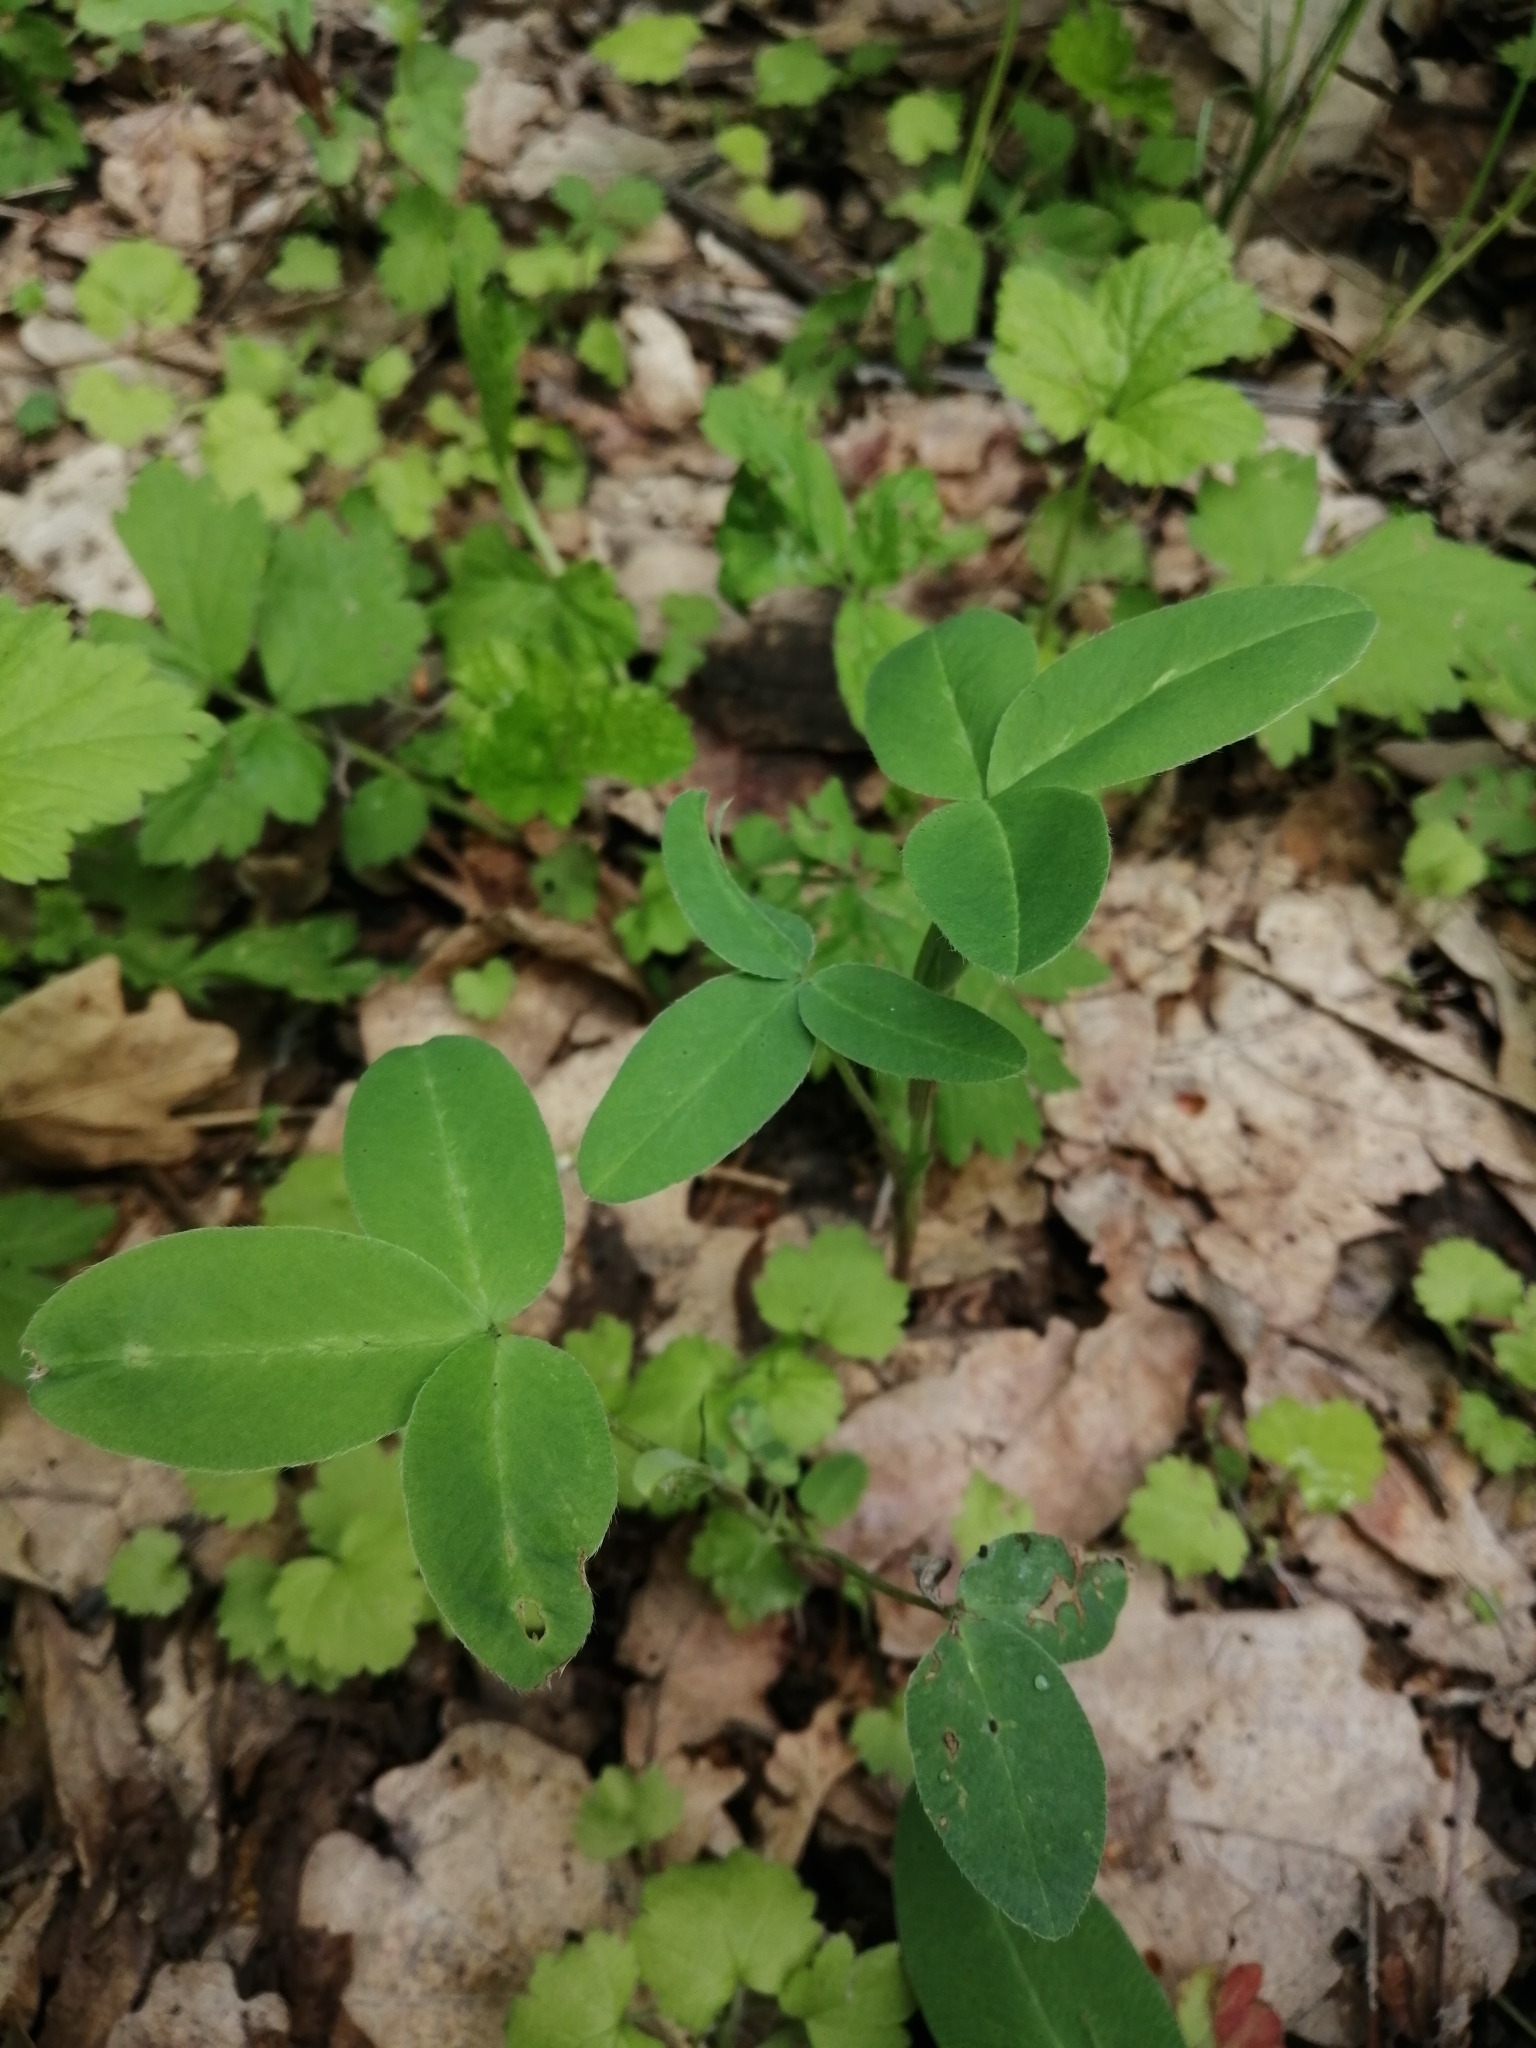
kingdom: Plantae
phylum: Tracheophyta
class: Magnoliopsida
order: Fabales
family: Fabaceae
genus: Trifolium
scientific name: Trifolium medium
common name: Zigzag clover
